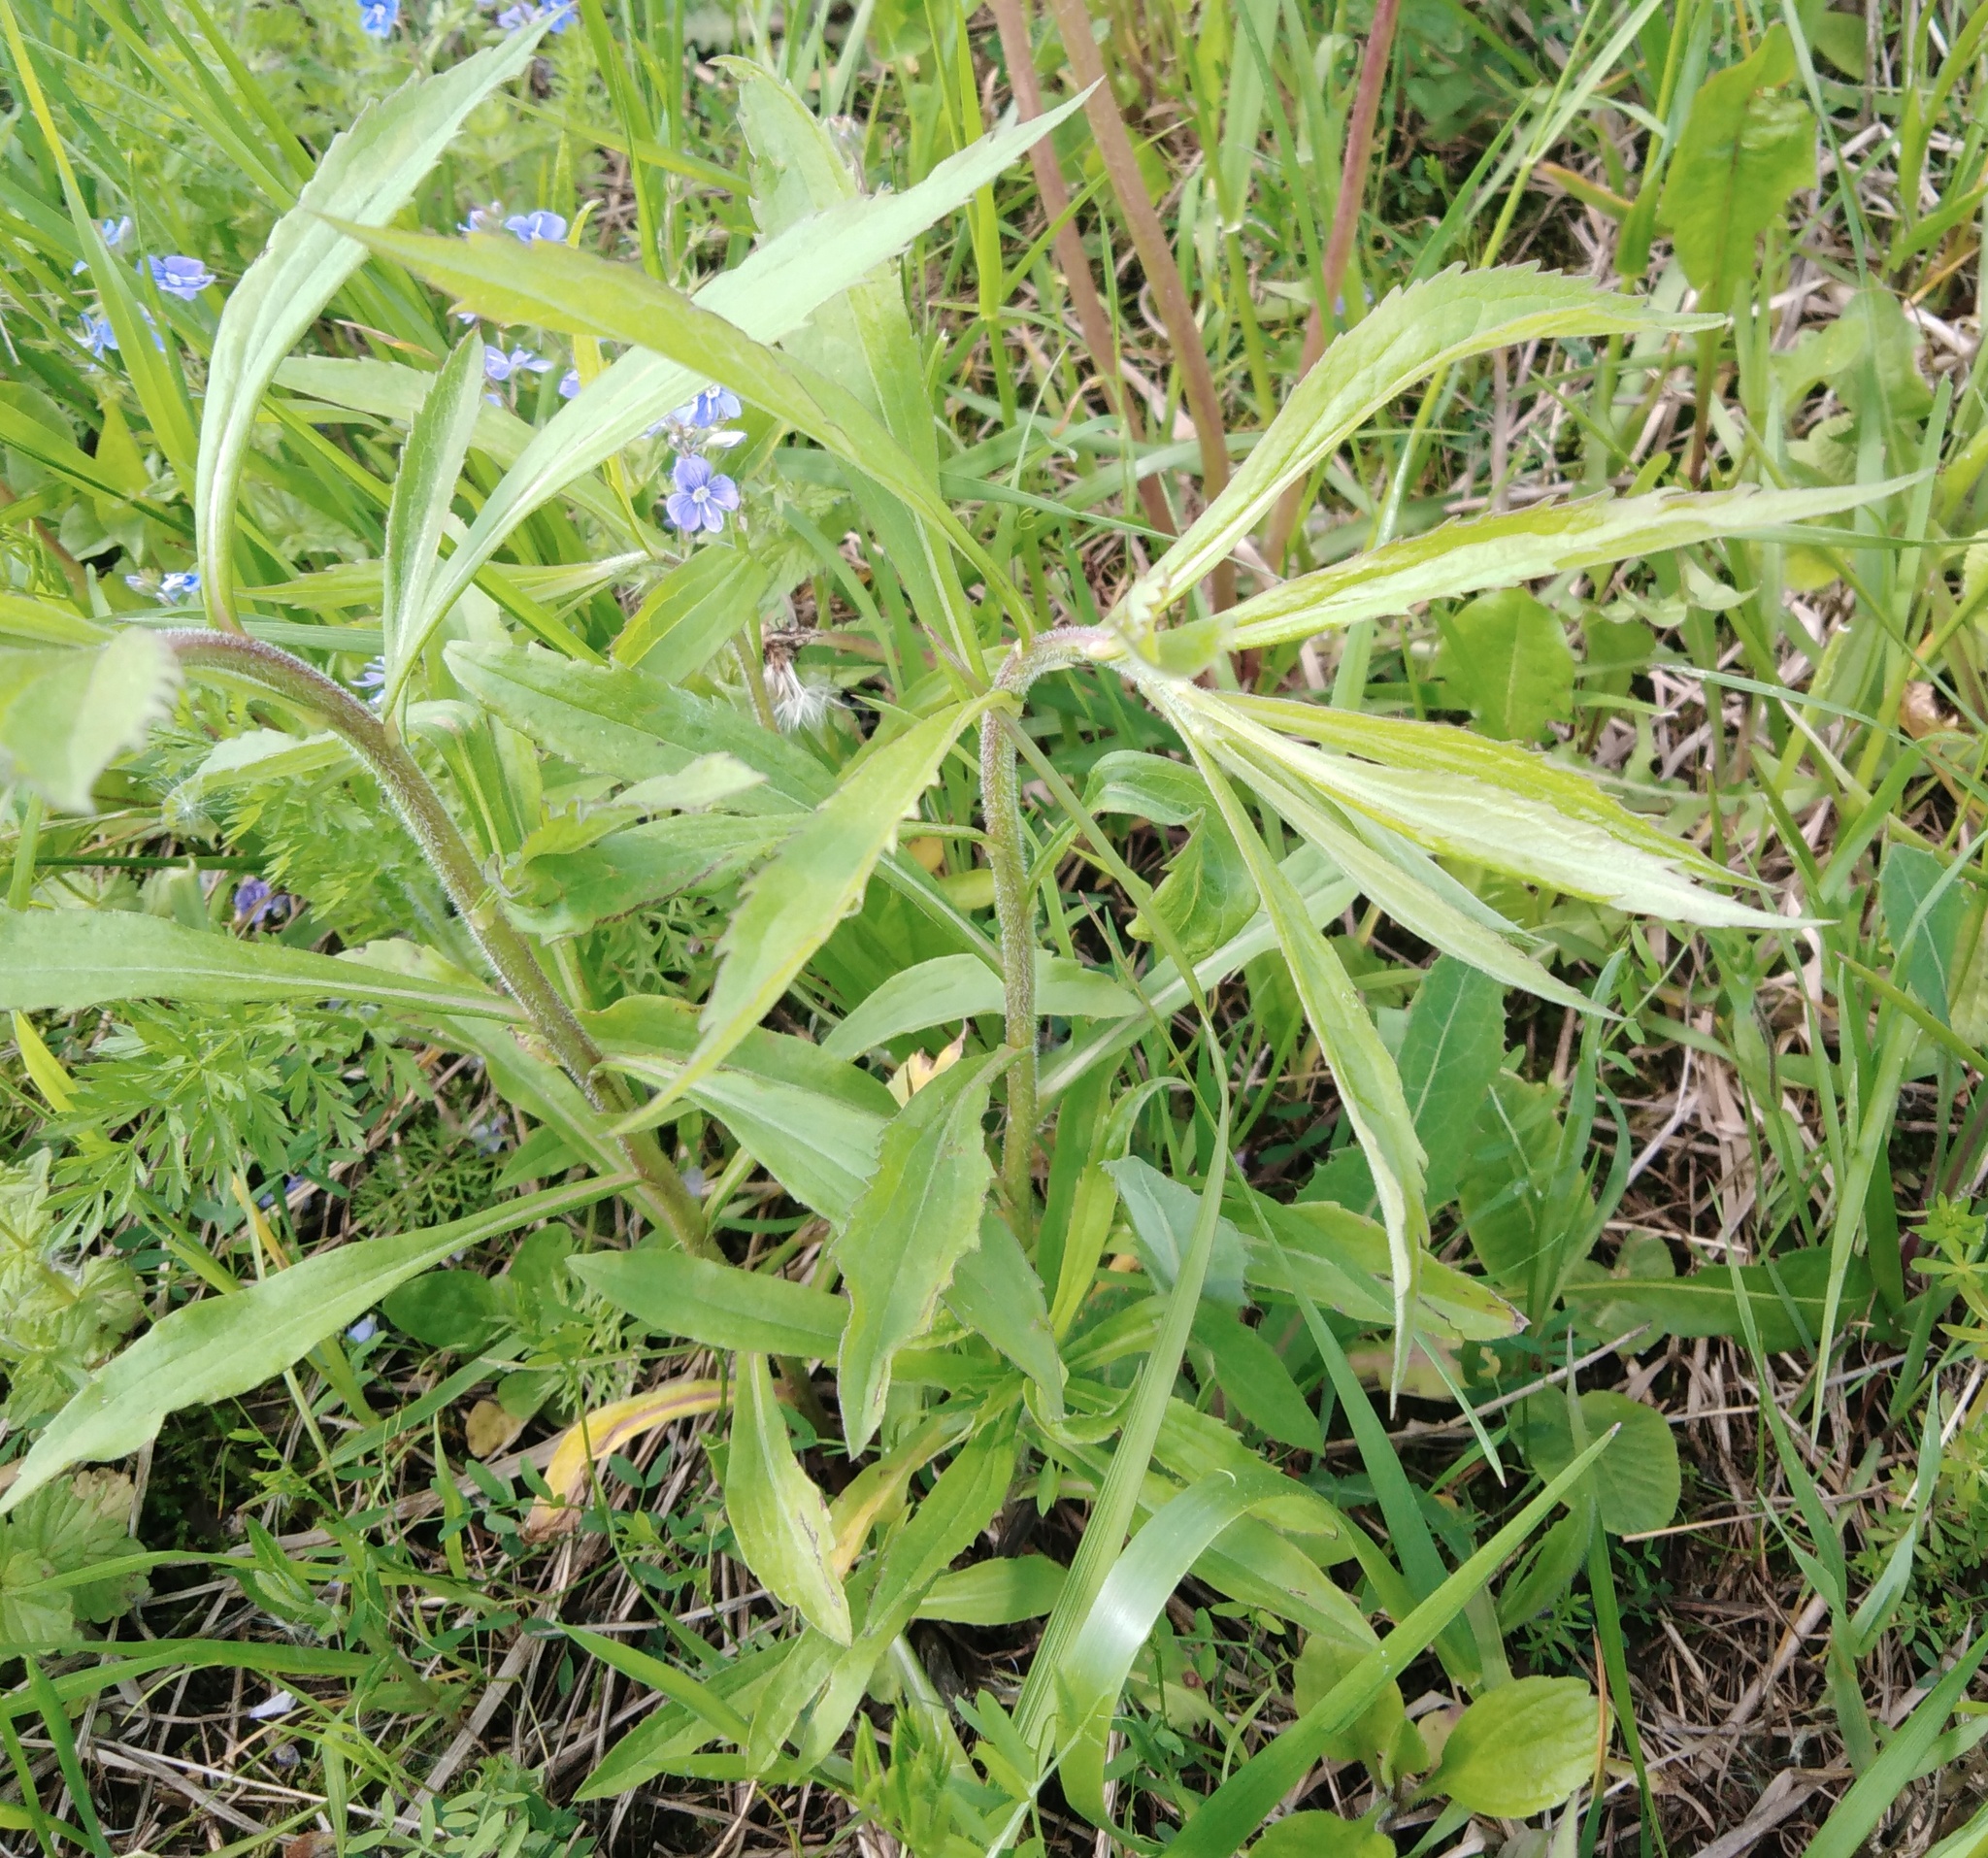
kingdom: Plantae
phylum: Tracheophyta
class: Magnoliopsida
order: Asterales
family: Asteraceae
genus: Solidago
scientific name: Solidago canadensis
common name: Canada goldenrod
